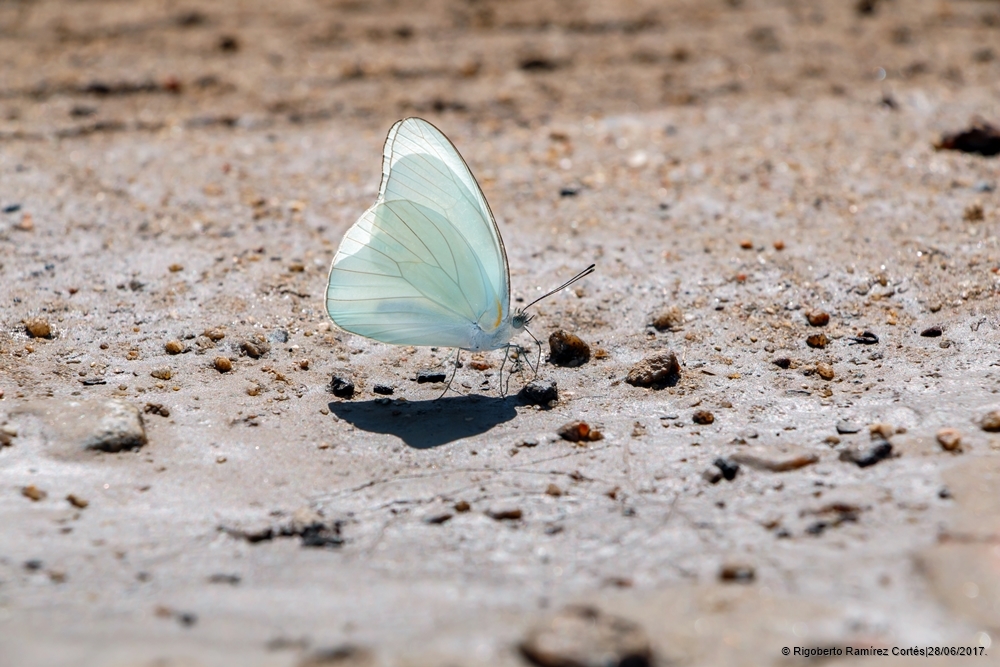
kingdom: Animalia
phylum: Arthropoda
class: Insecta
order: Lepidoptera
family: Pieridae
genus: Glutophrissa
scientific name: Glutophrissa drusilla
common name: Florida white
